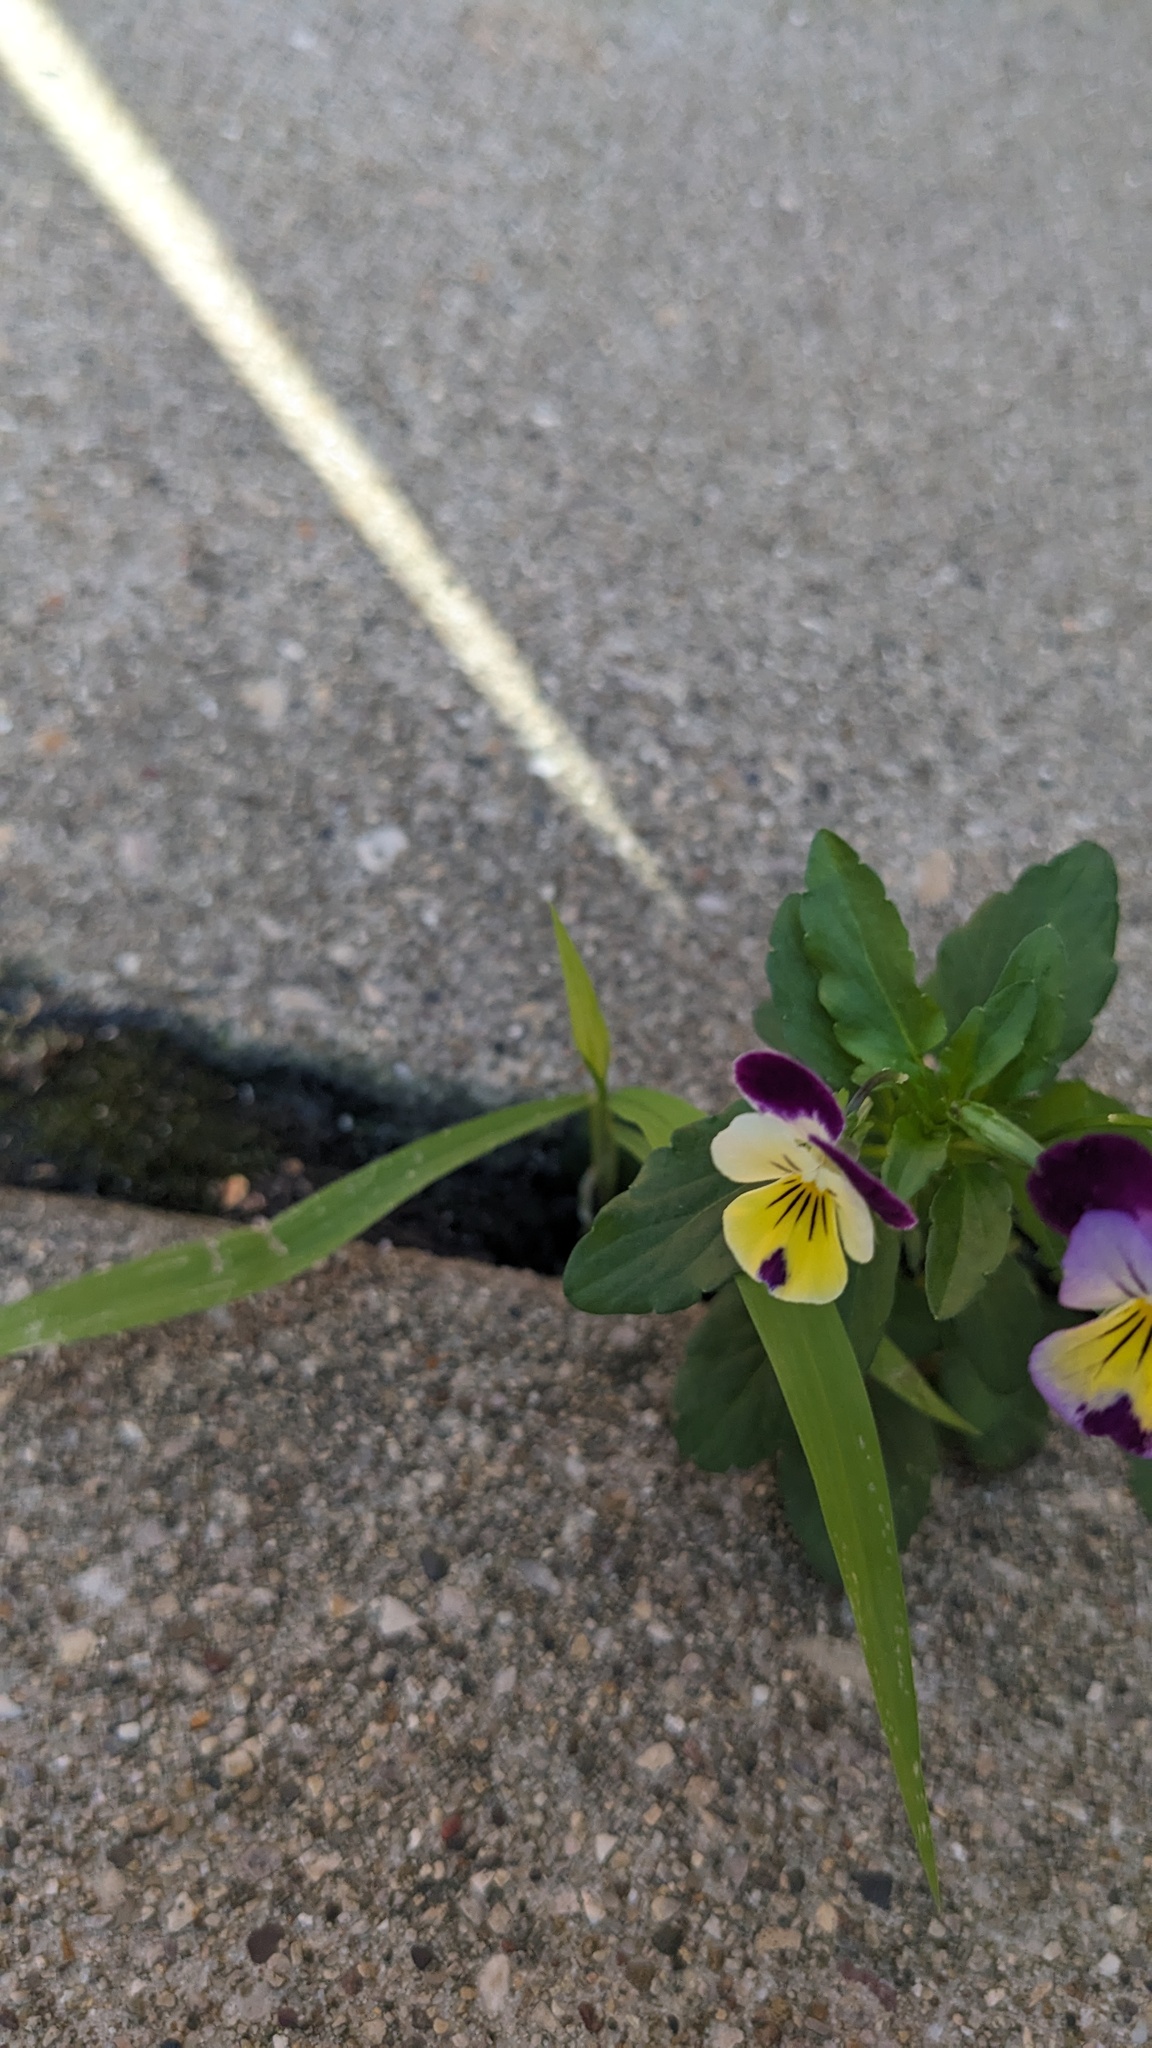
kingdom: Plantae
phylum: Tracheophyta
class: Magnoliopsida
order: Malpighiales
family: Violaceae
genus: Viola
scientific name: Viola williamsii
